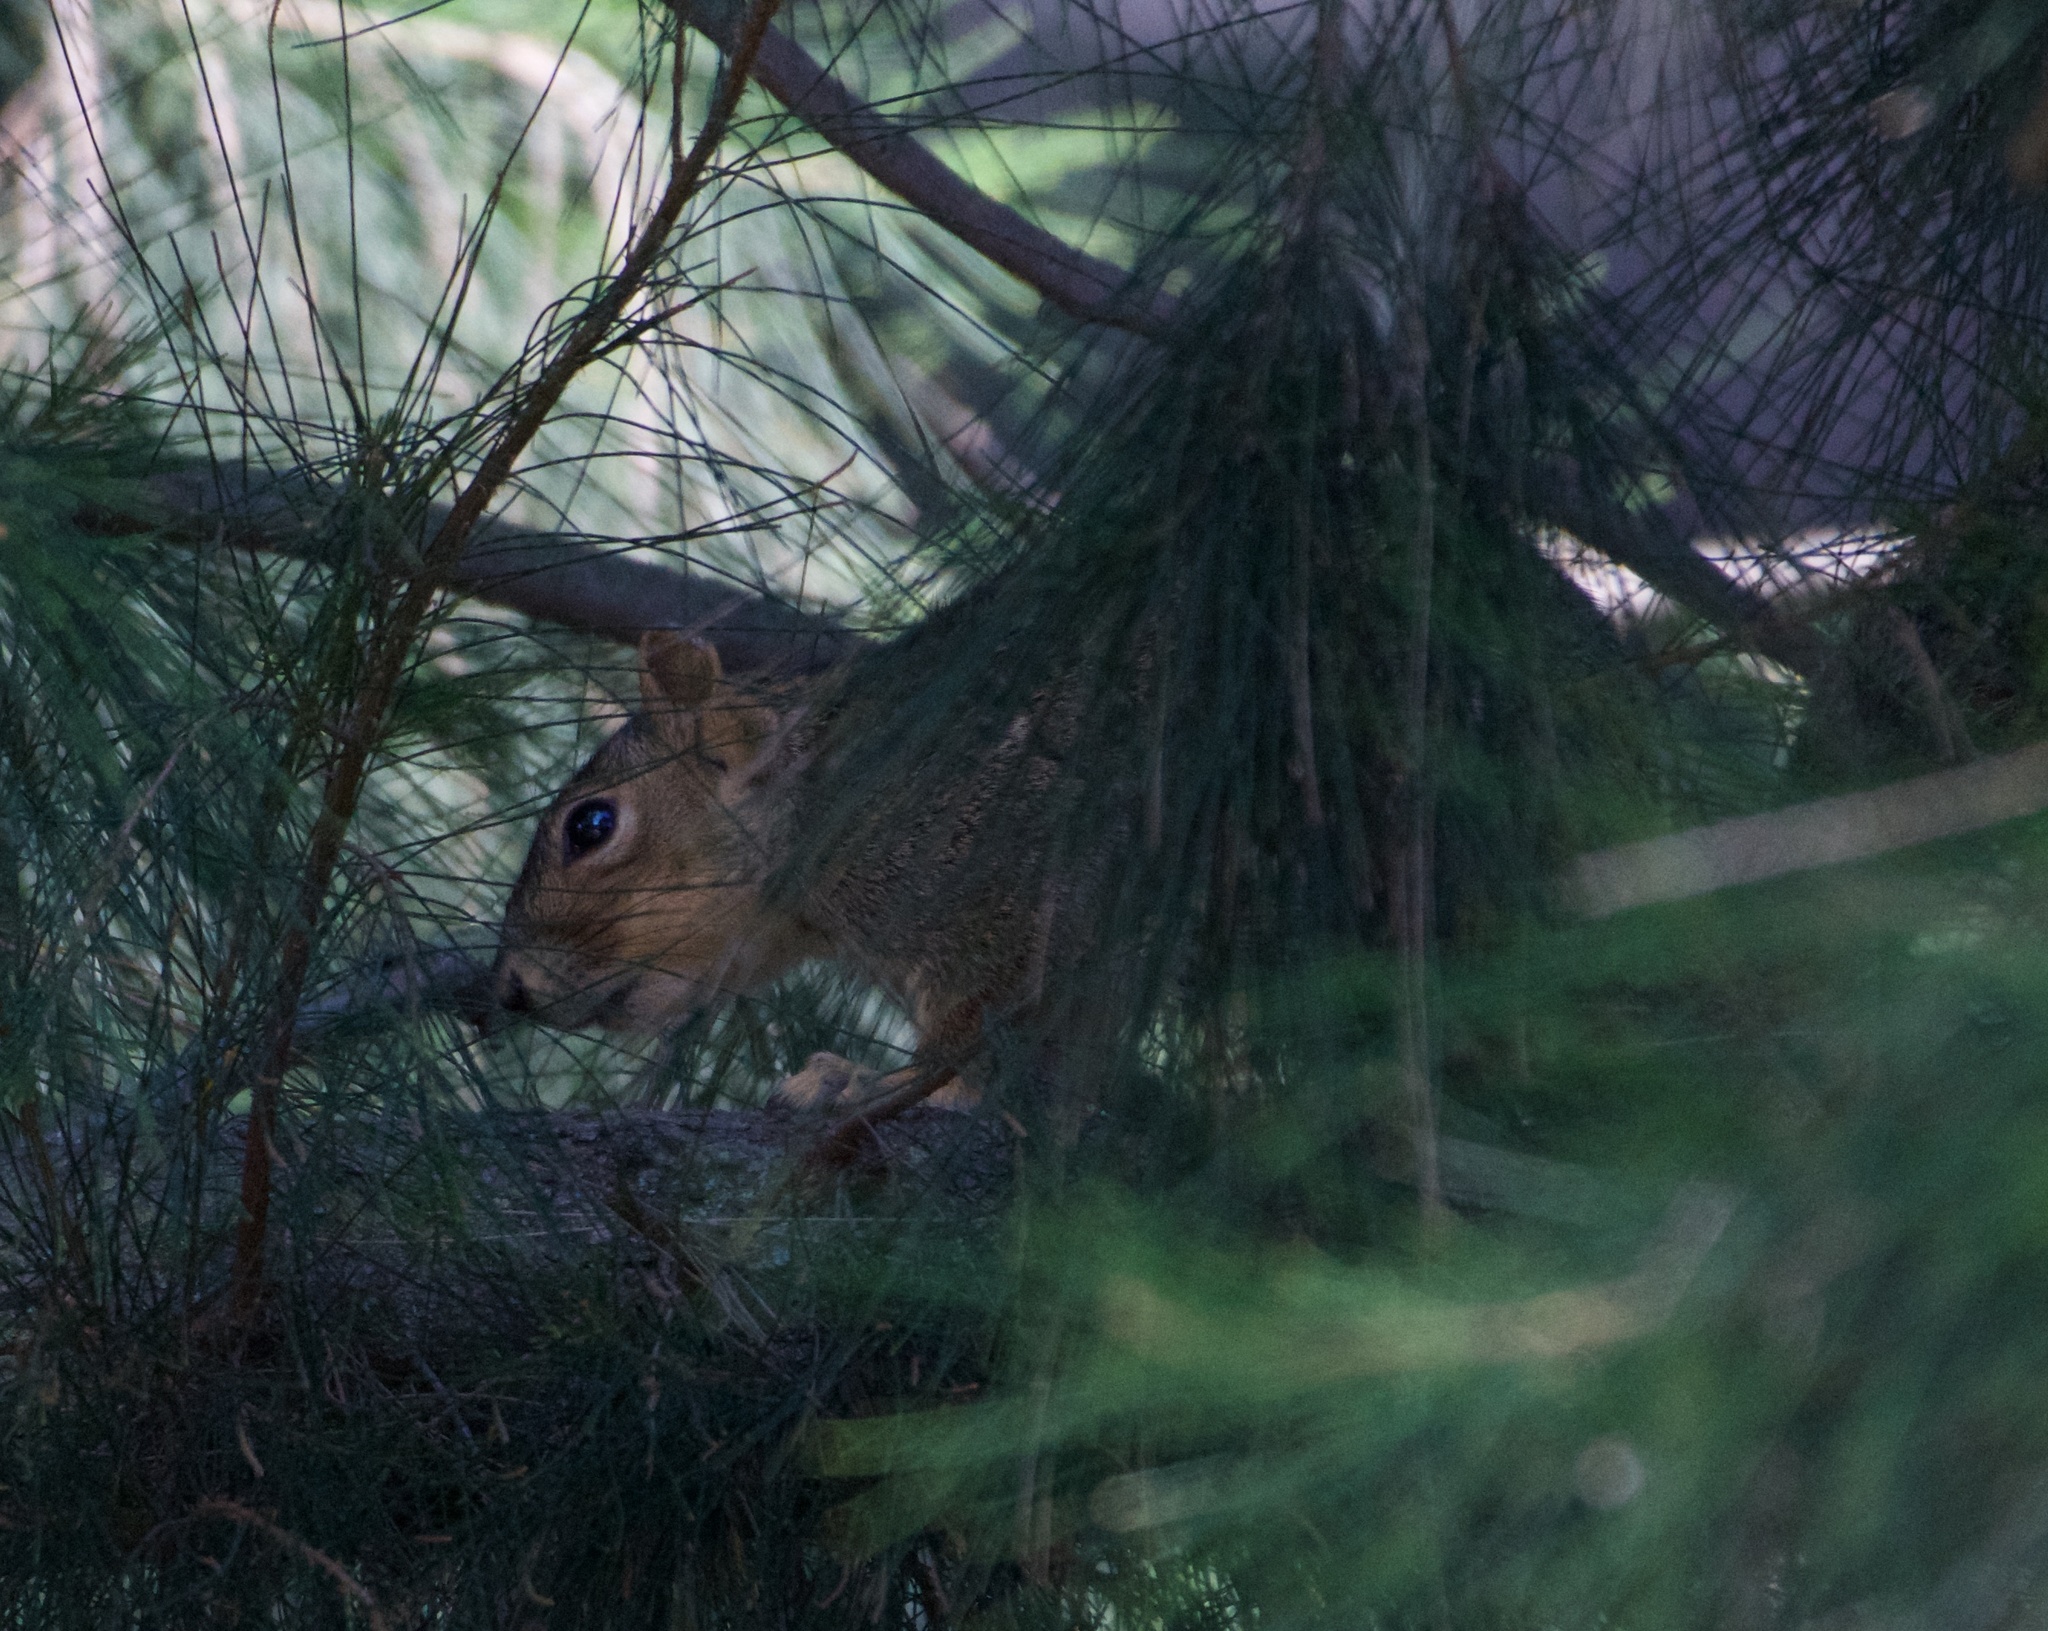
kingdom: Animalia
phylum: Chordata
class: Mammalia
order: Rodentia
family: Sciuridae
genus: Sciurus
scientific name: Sciurus niger
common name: Fox squirrel
